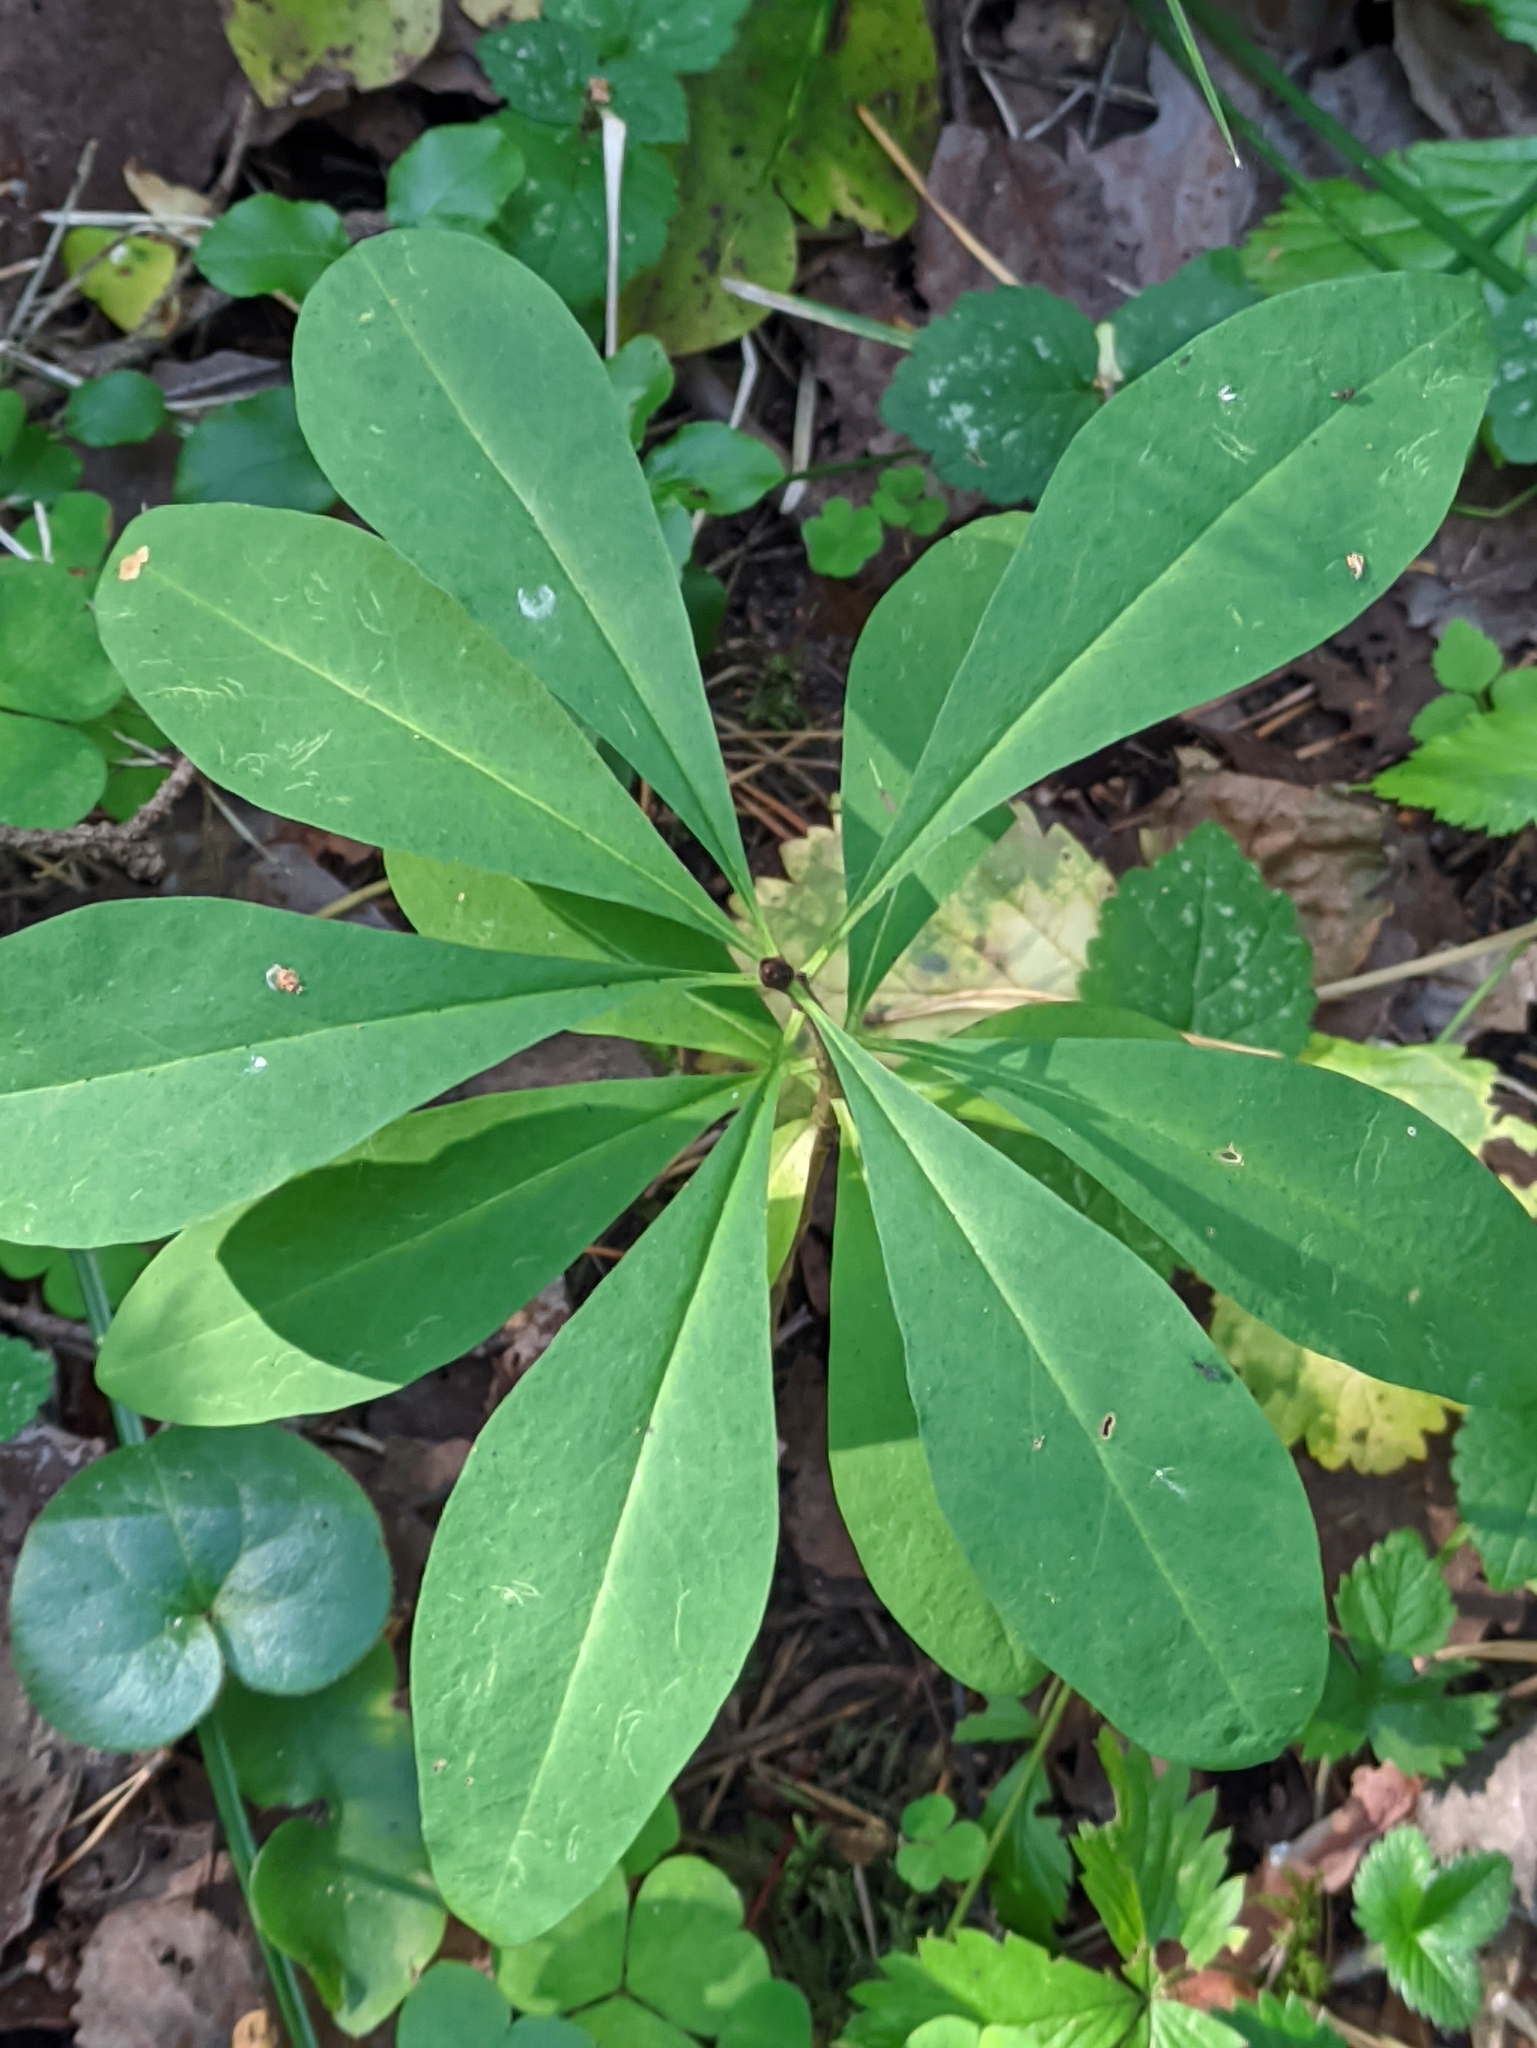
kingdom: Plantae
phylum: Tracheophyta
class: Magnoliopsida
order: Malvales
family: Thymelaeaceae
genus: Daphne
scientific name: Daphne mezereum
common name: Mezereon
